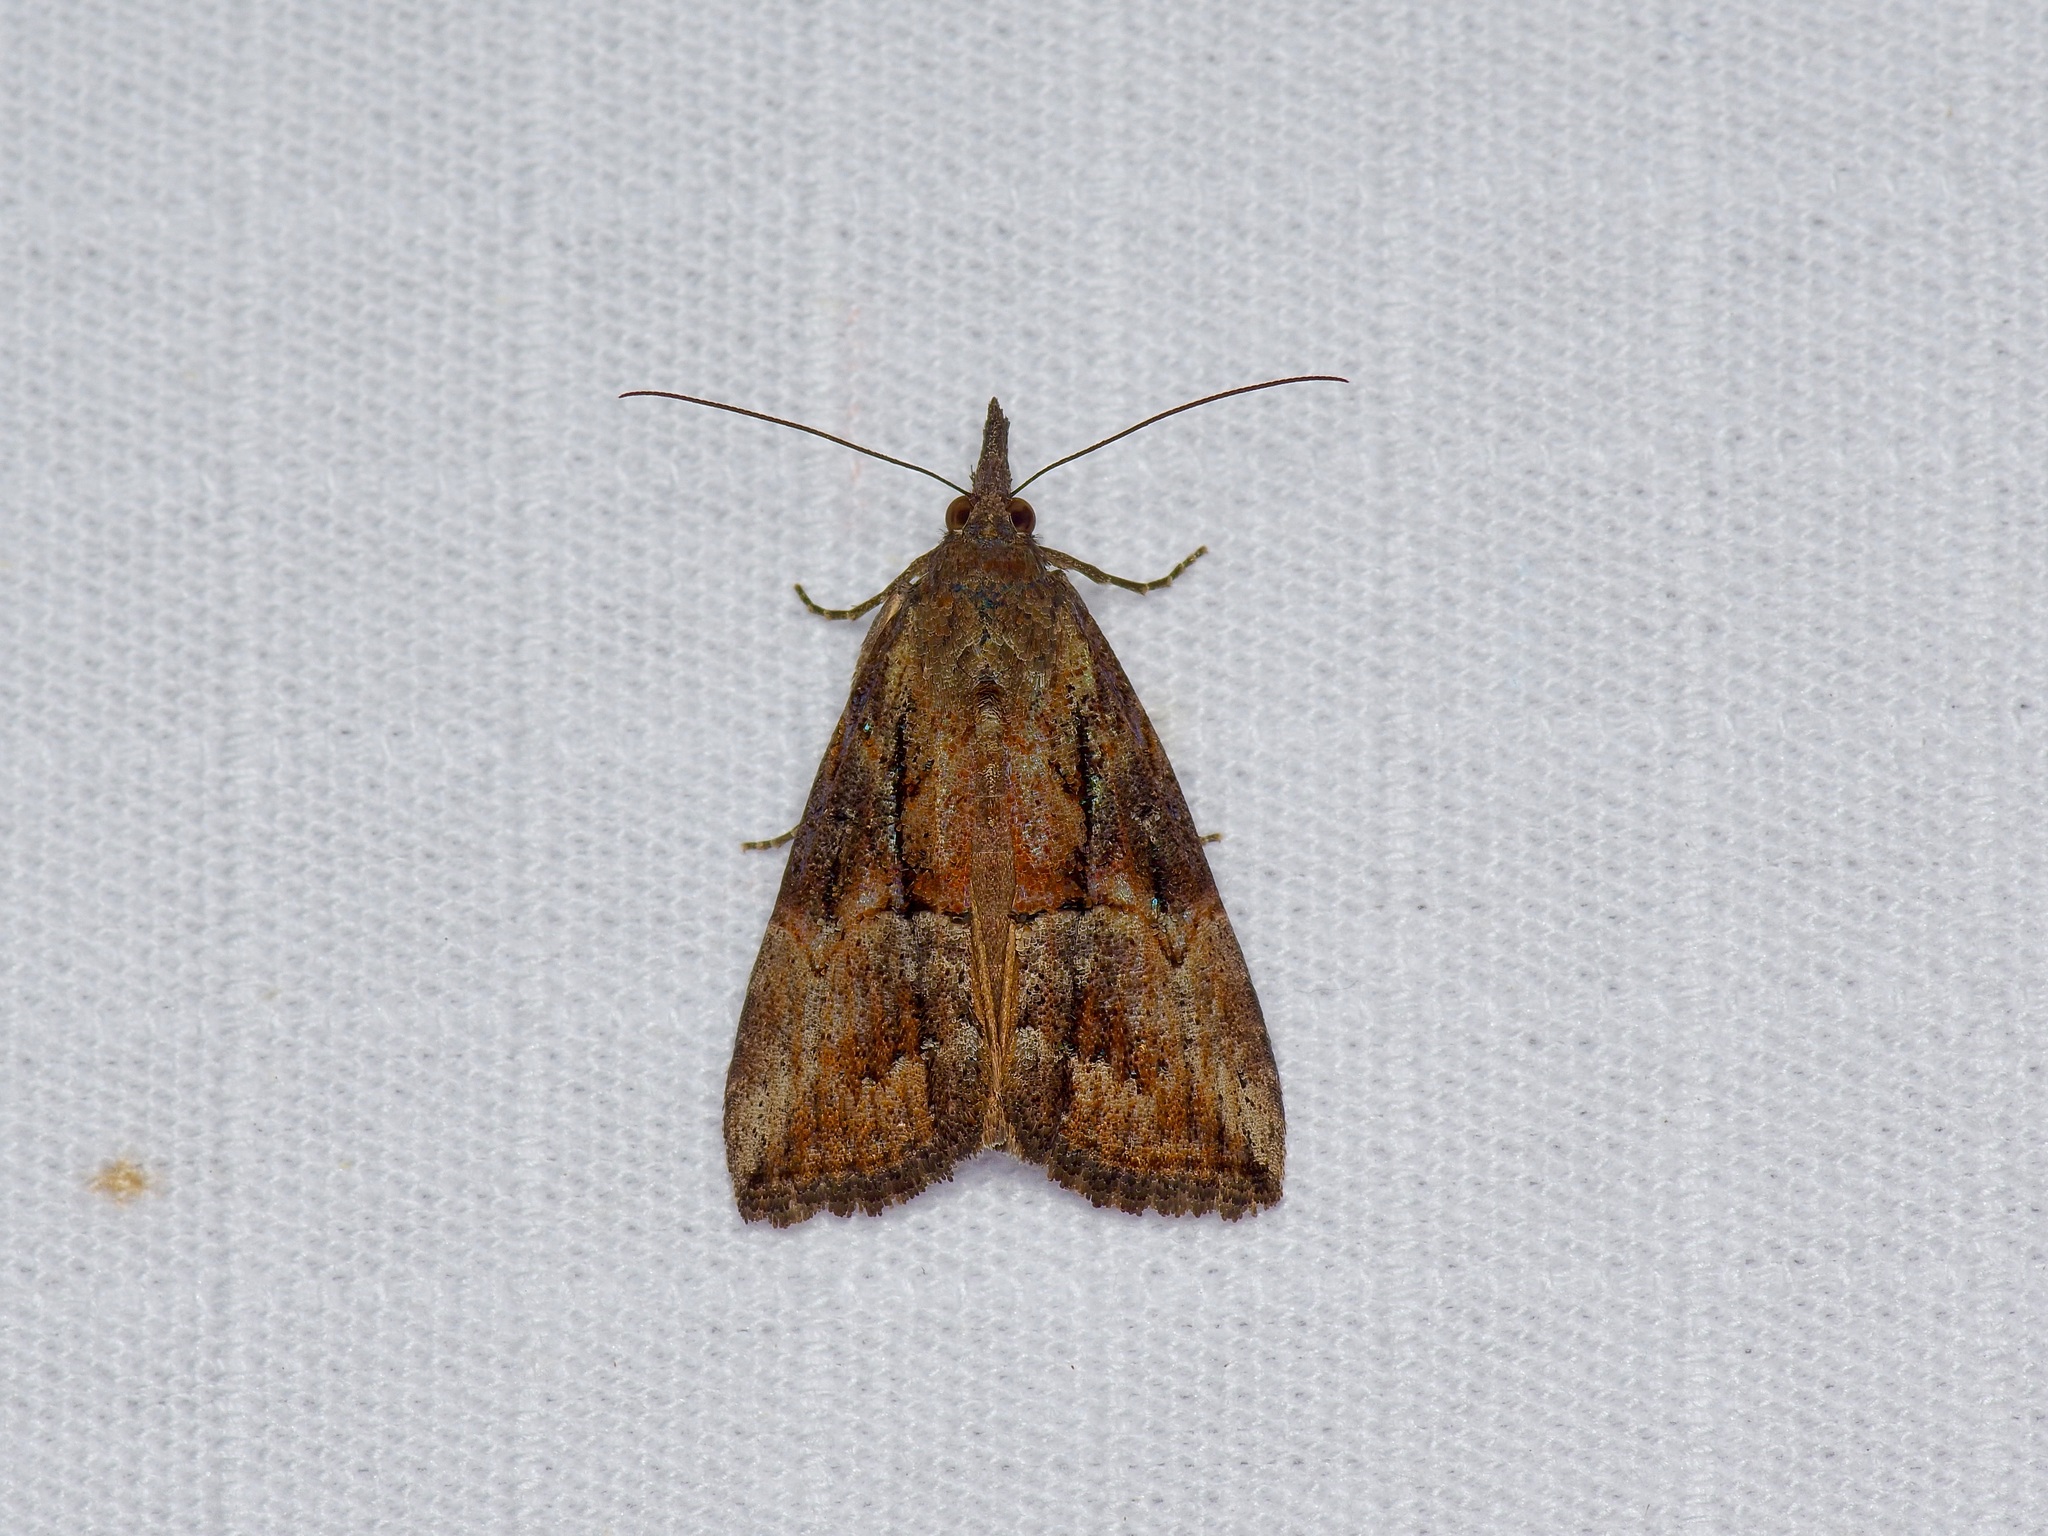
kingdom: Animalia
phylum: Arthropoda
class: Insecta
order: Lepidoptera
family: Erebidae
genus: Hypena
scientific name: Hypena scabra
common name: Green cloverworm
